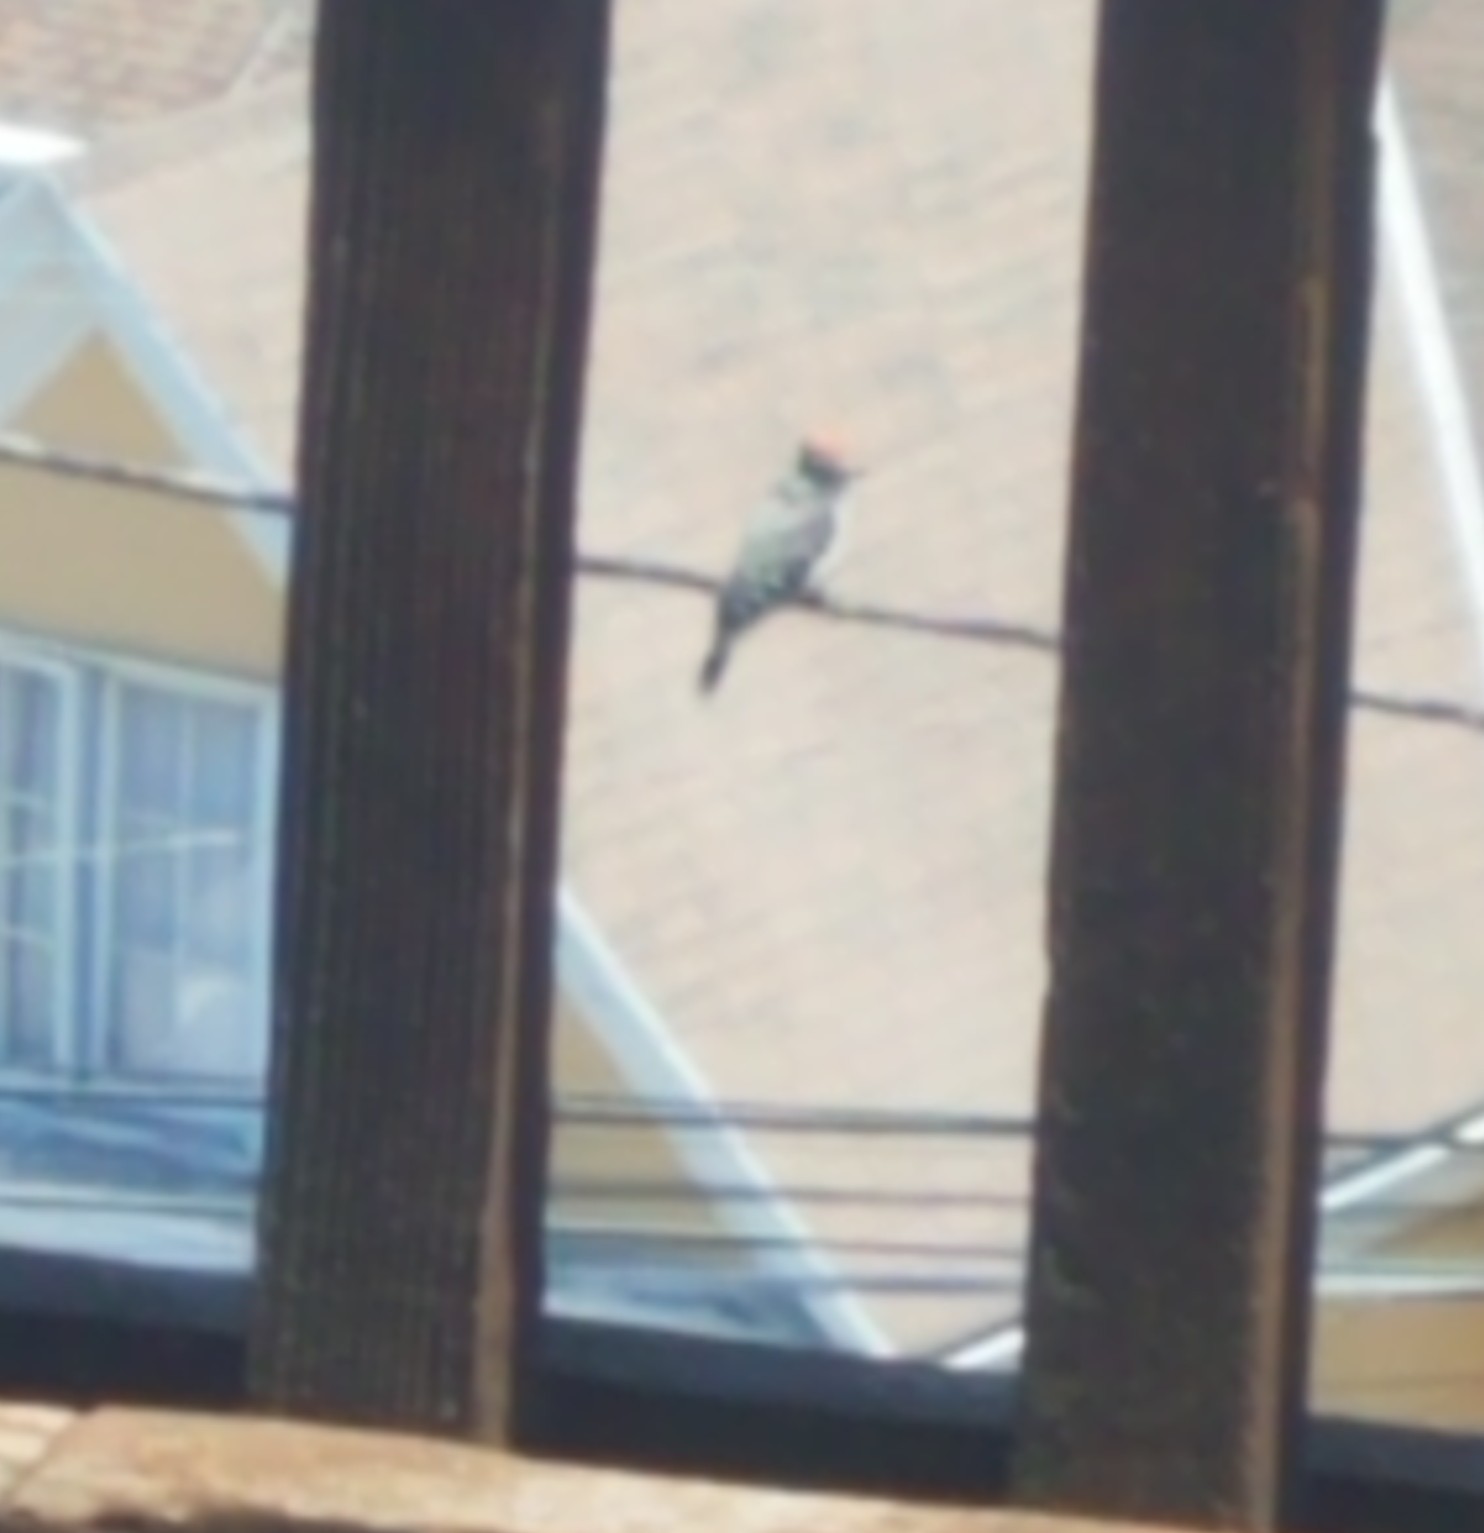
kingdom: Animalia
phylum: Chordata
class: Aves
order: Piciformes
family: Picidae
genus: Dryobates
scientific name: Dryobates nuttallii
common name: Nuttall's woodpecker
